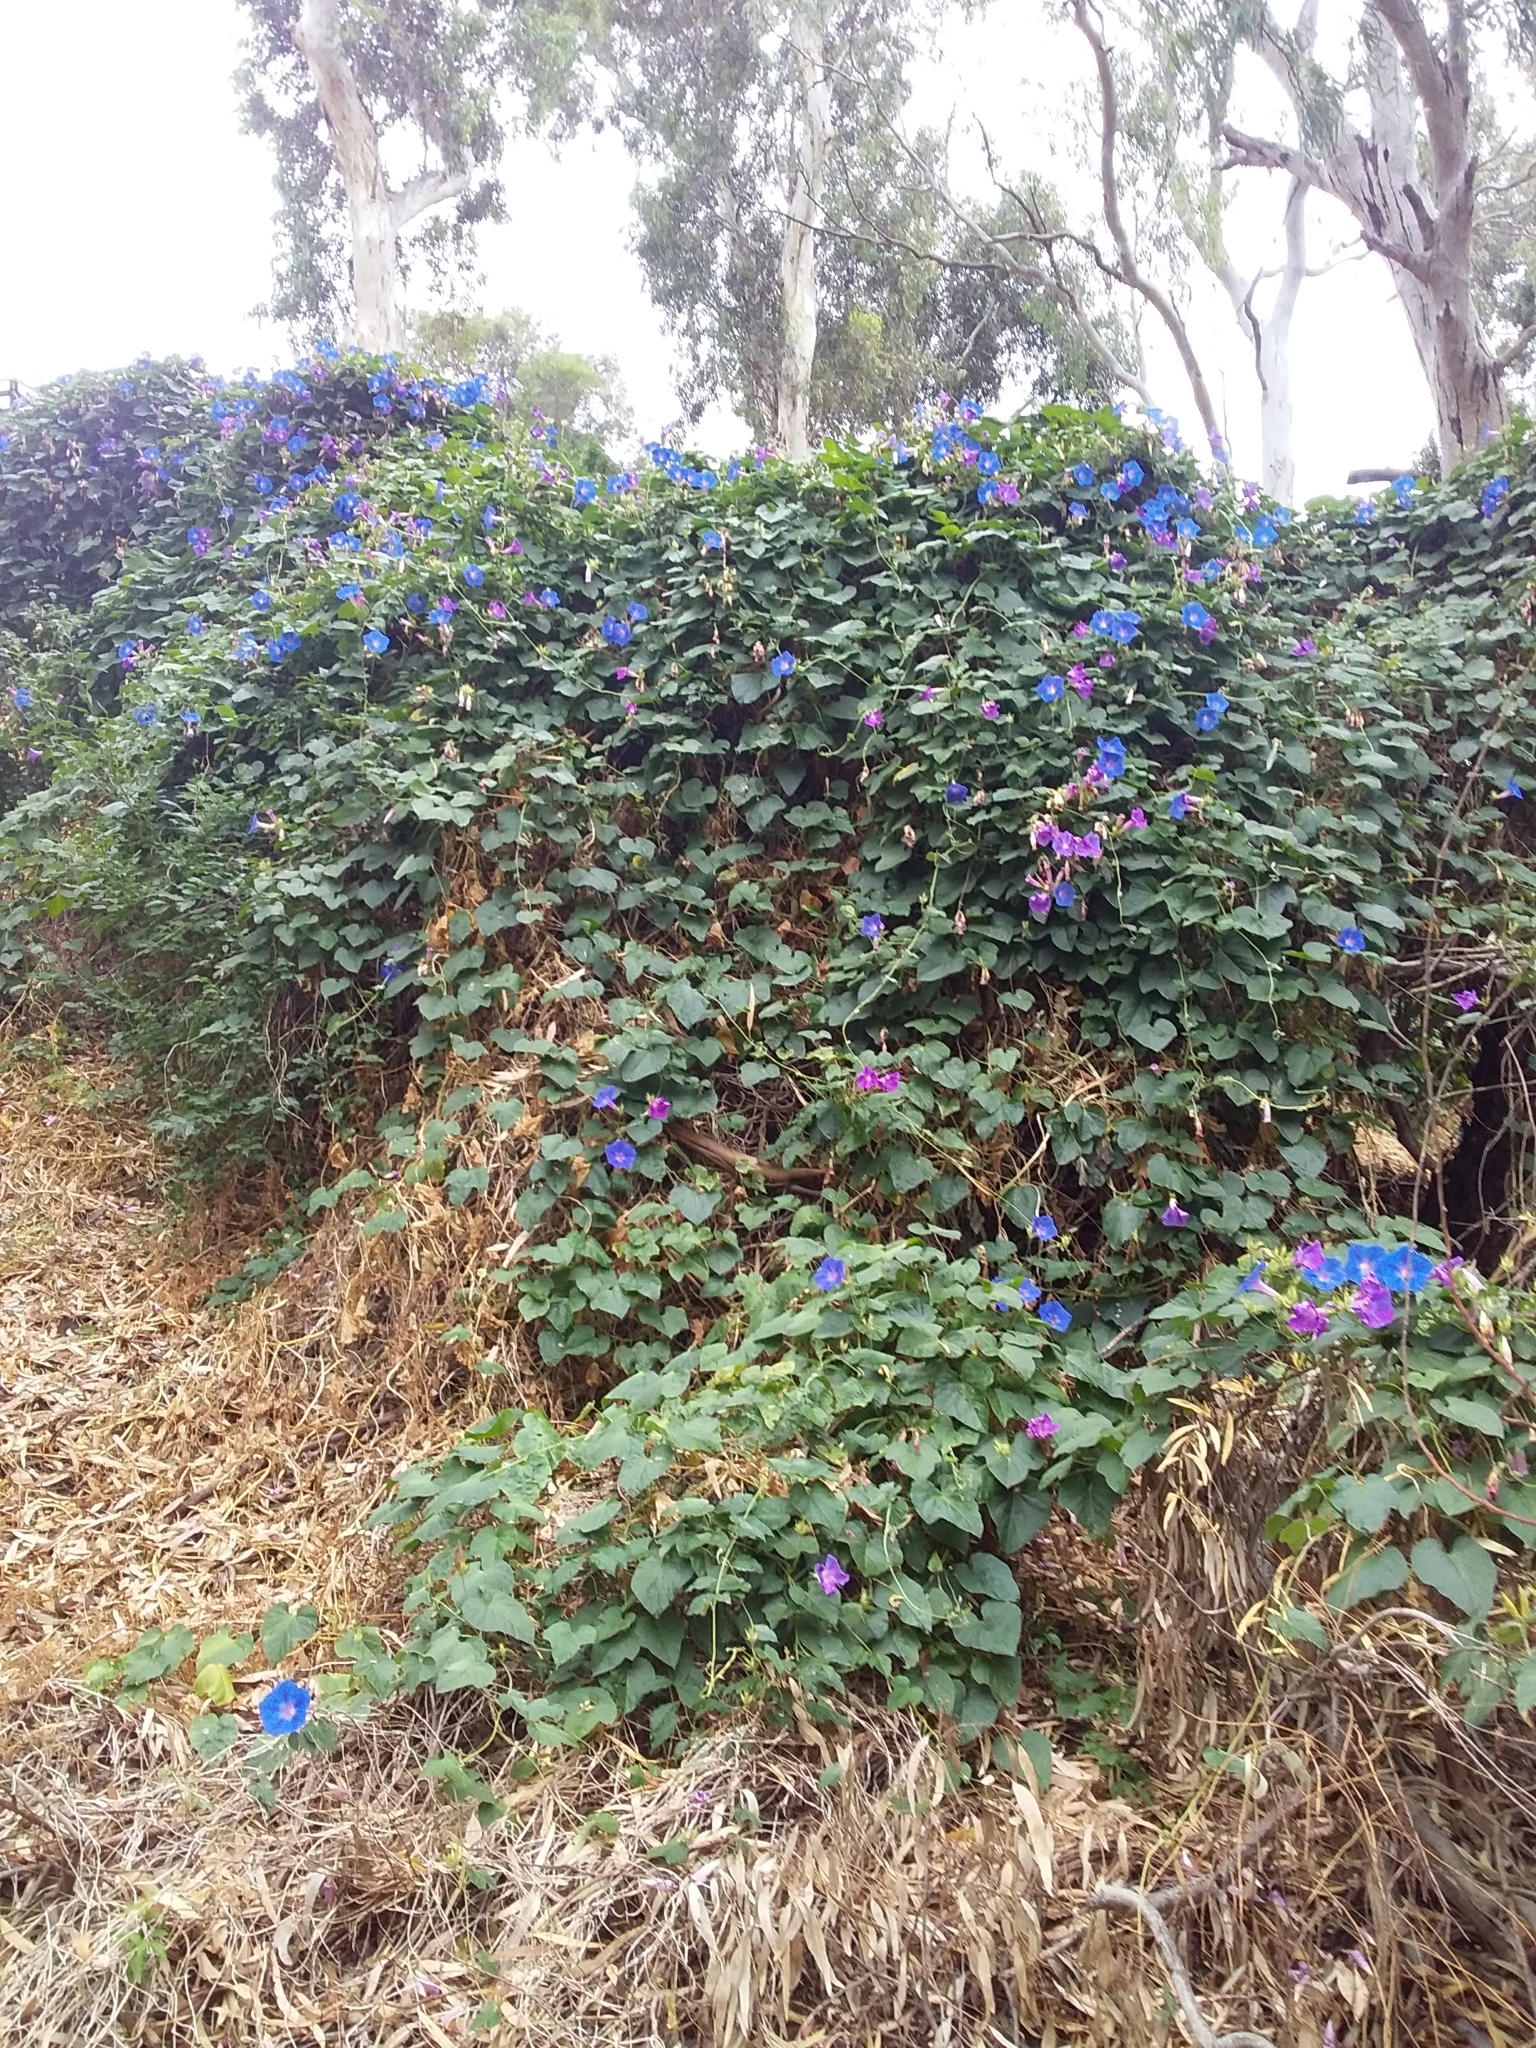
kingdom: Plantae
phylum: Tracheophyta
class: Magnoliopsida
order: Solanales
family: Convolvulaceae
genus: Ipomoea
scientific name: Ipomoea indica
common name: Blue dawnflower
